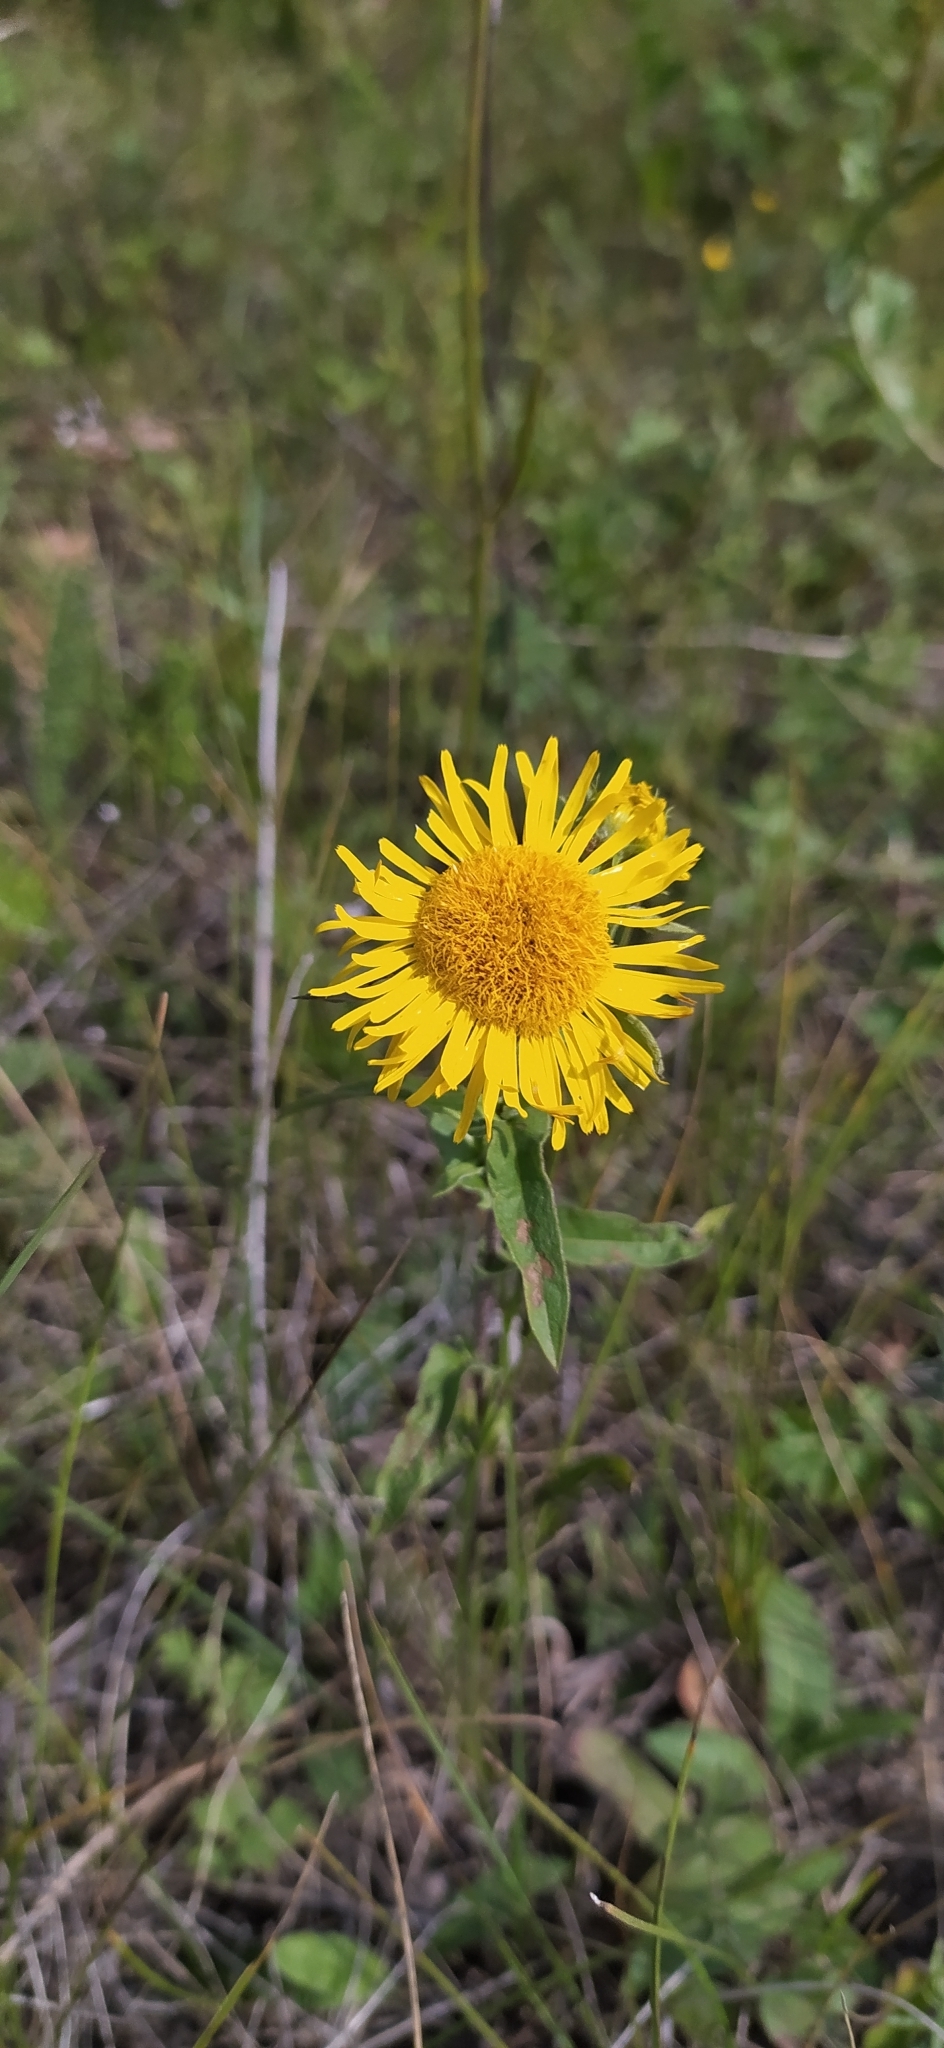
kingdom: Plantae
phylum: Tracheophyta
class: Magnoliopsida
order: Asterales
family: Asteraceae
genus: Pentanema
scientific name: Pentanema britannicum
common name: British elecampane
